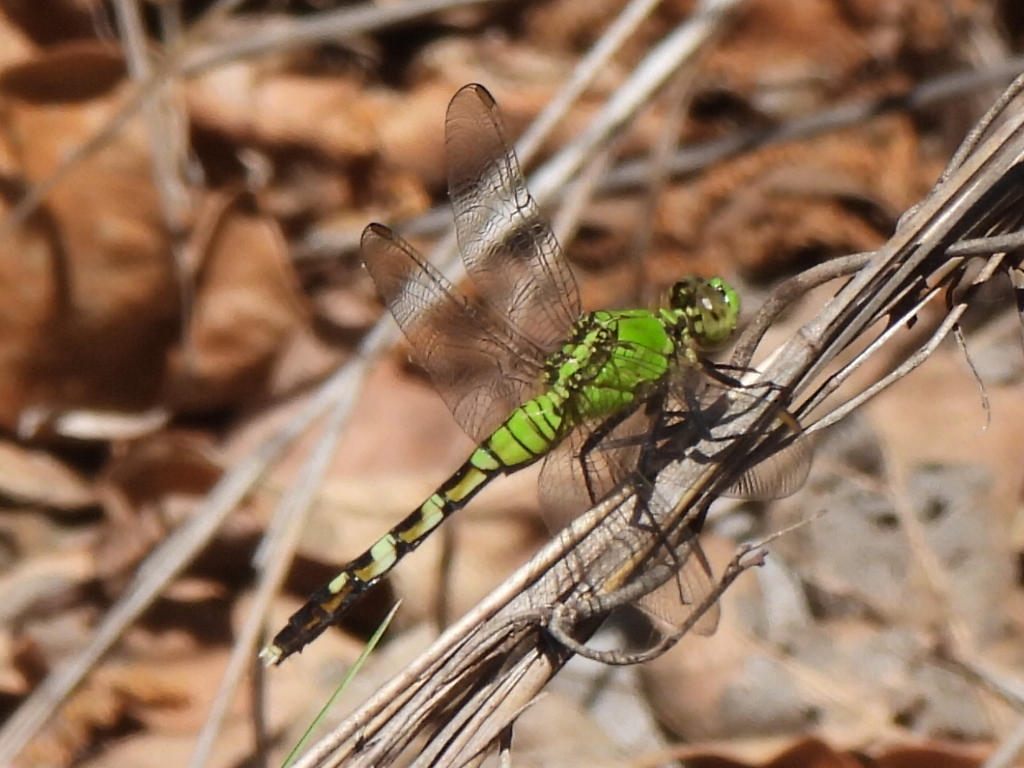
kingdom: Animalia
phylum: Arthropoda
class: Insecta
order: Odonata
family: Libellulidae
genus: Erythemis
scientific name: Erythemis simplicicollis
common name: Eastern pondhawk
